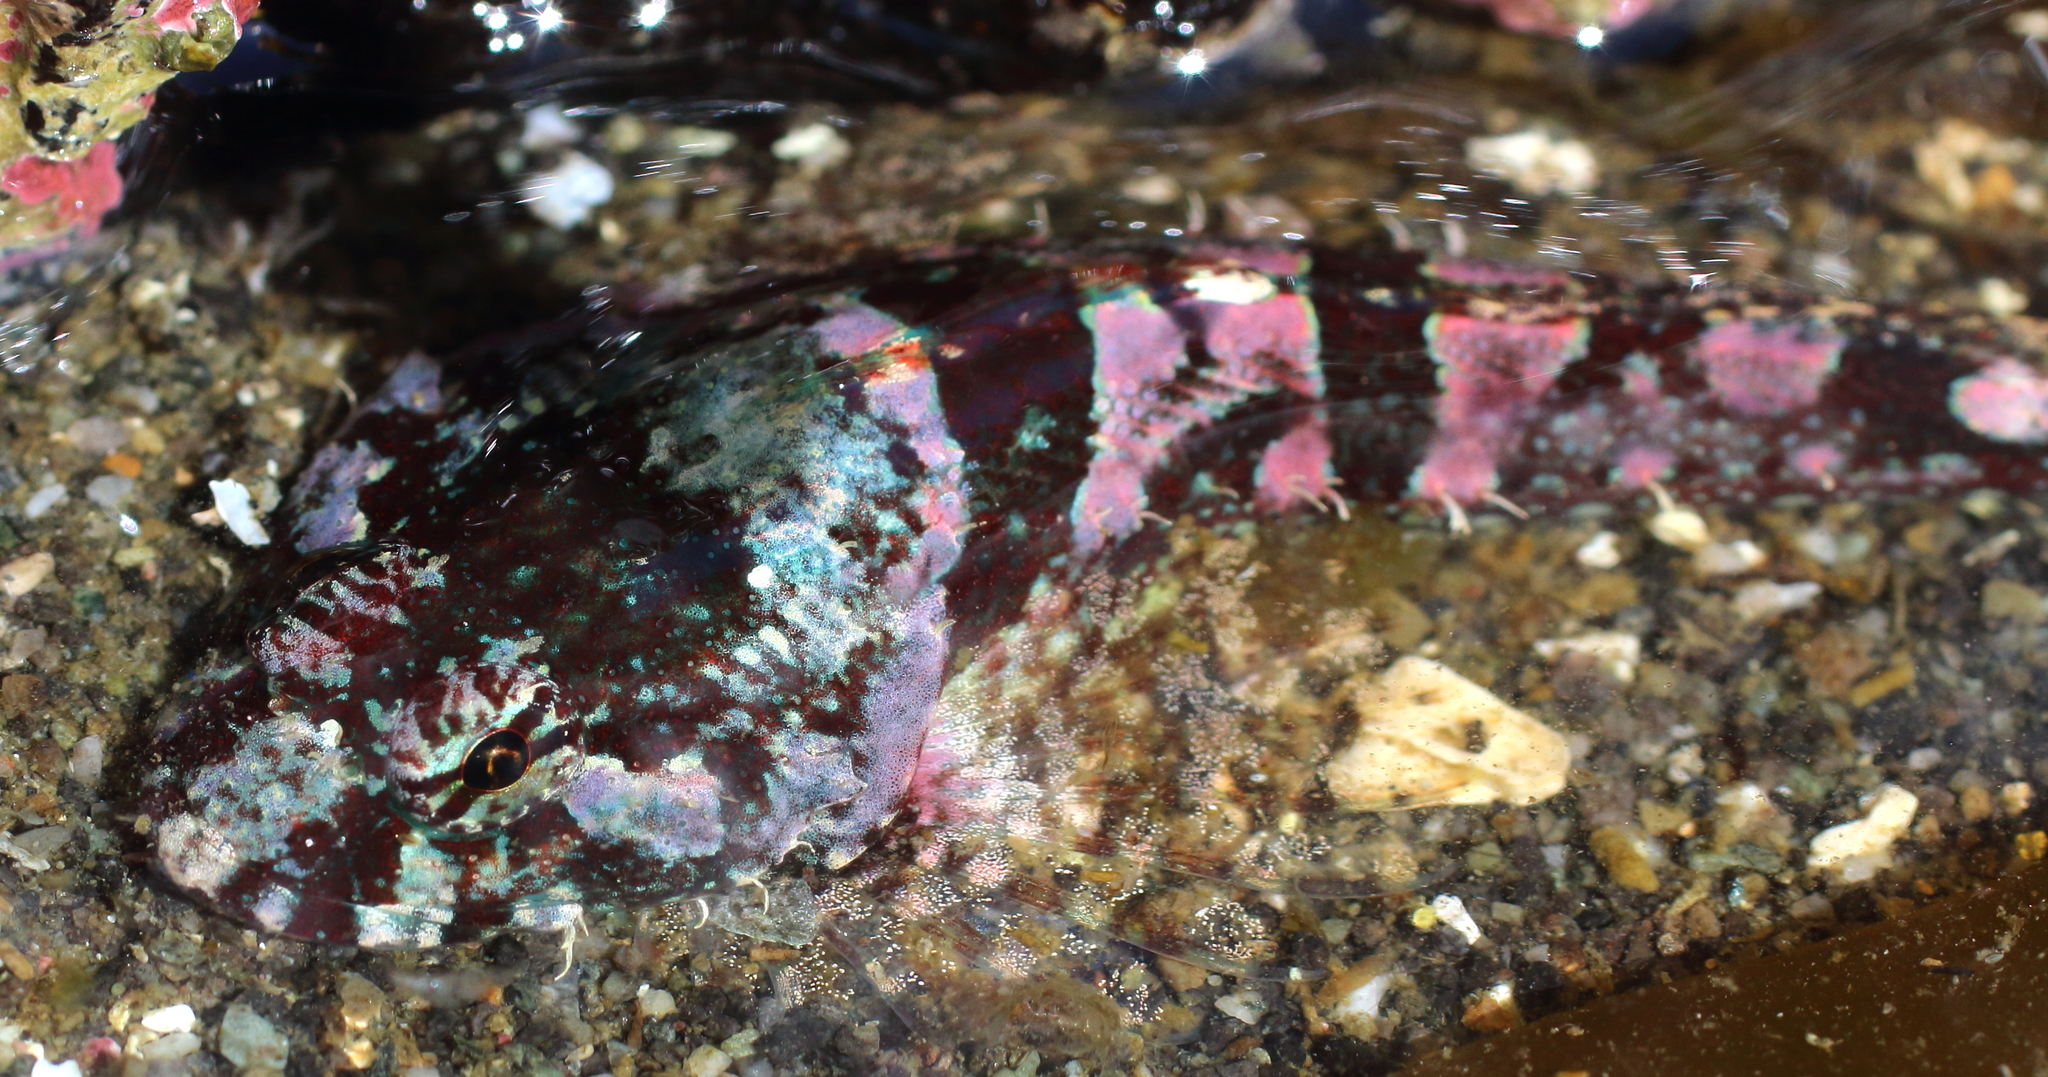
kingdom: Animalia
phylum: Chordata
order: Scorpaeniformes
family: Cottidae
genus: Artedius
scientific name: Artedius lateralis
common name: Smooth-head sculpin
